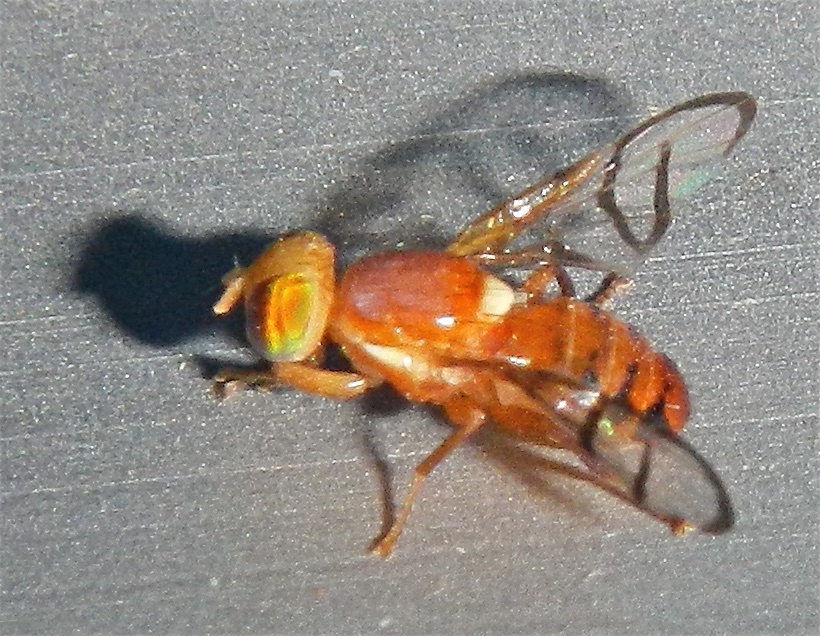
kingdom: Animalia
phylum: Arthropoda
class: Insecta
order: Diptera
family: Tephritidae
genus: Paraterellia
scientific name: Paraterellia superba
